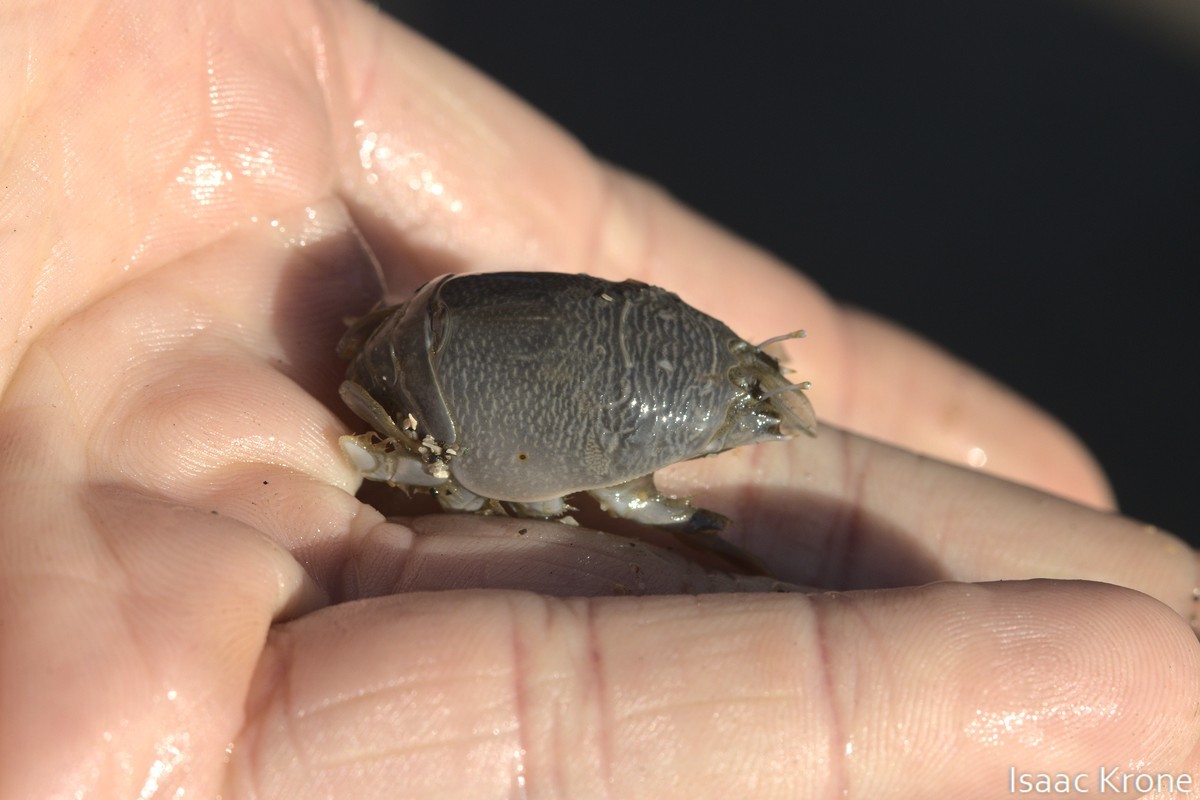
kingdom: Animalia
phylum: Arthropoda
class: Malacostraca
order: Decapoda
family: Hippidae
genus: Emerita
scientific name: Emerita analoga
